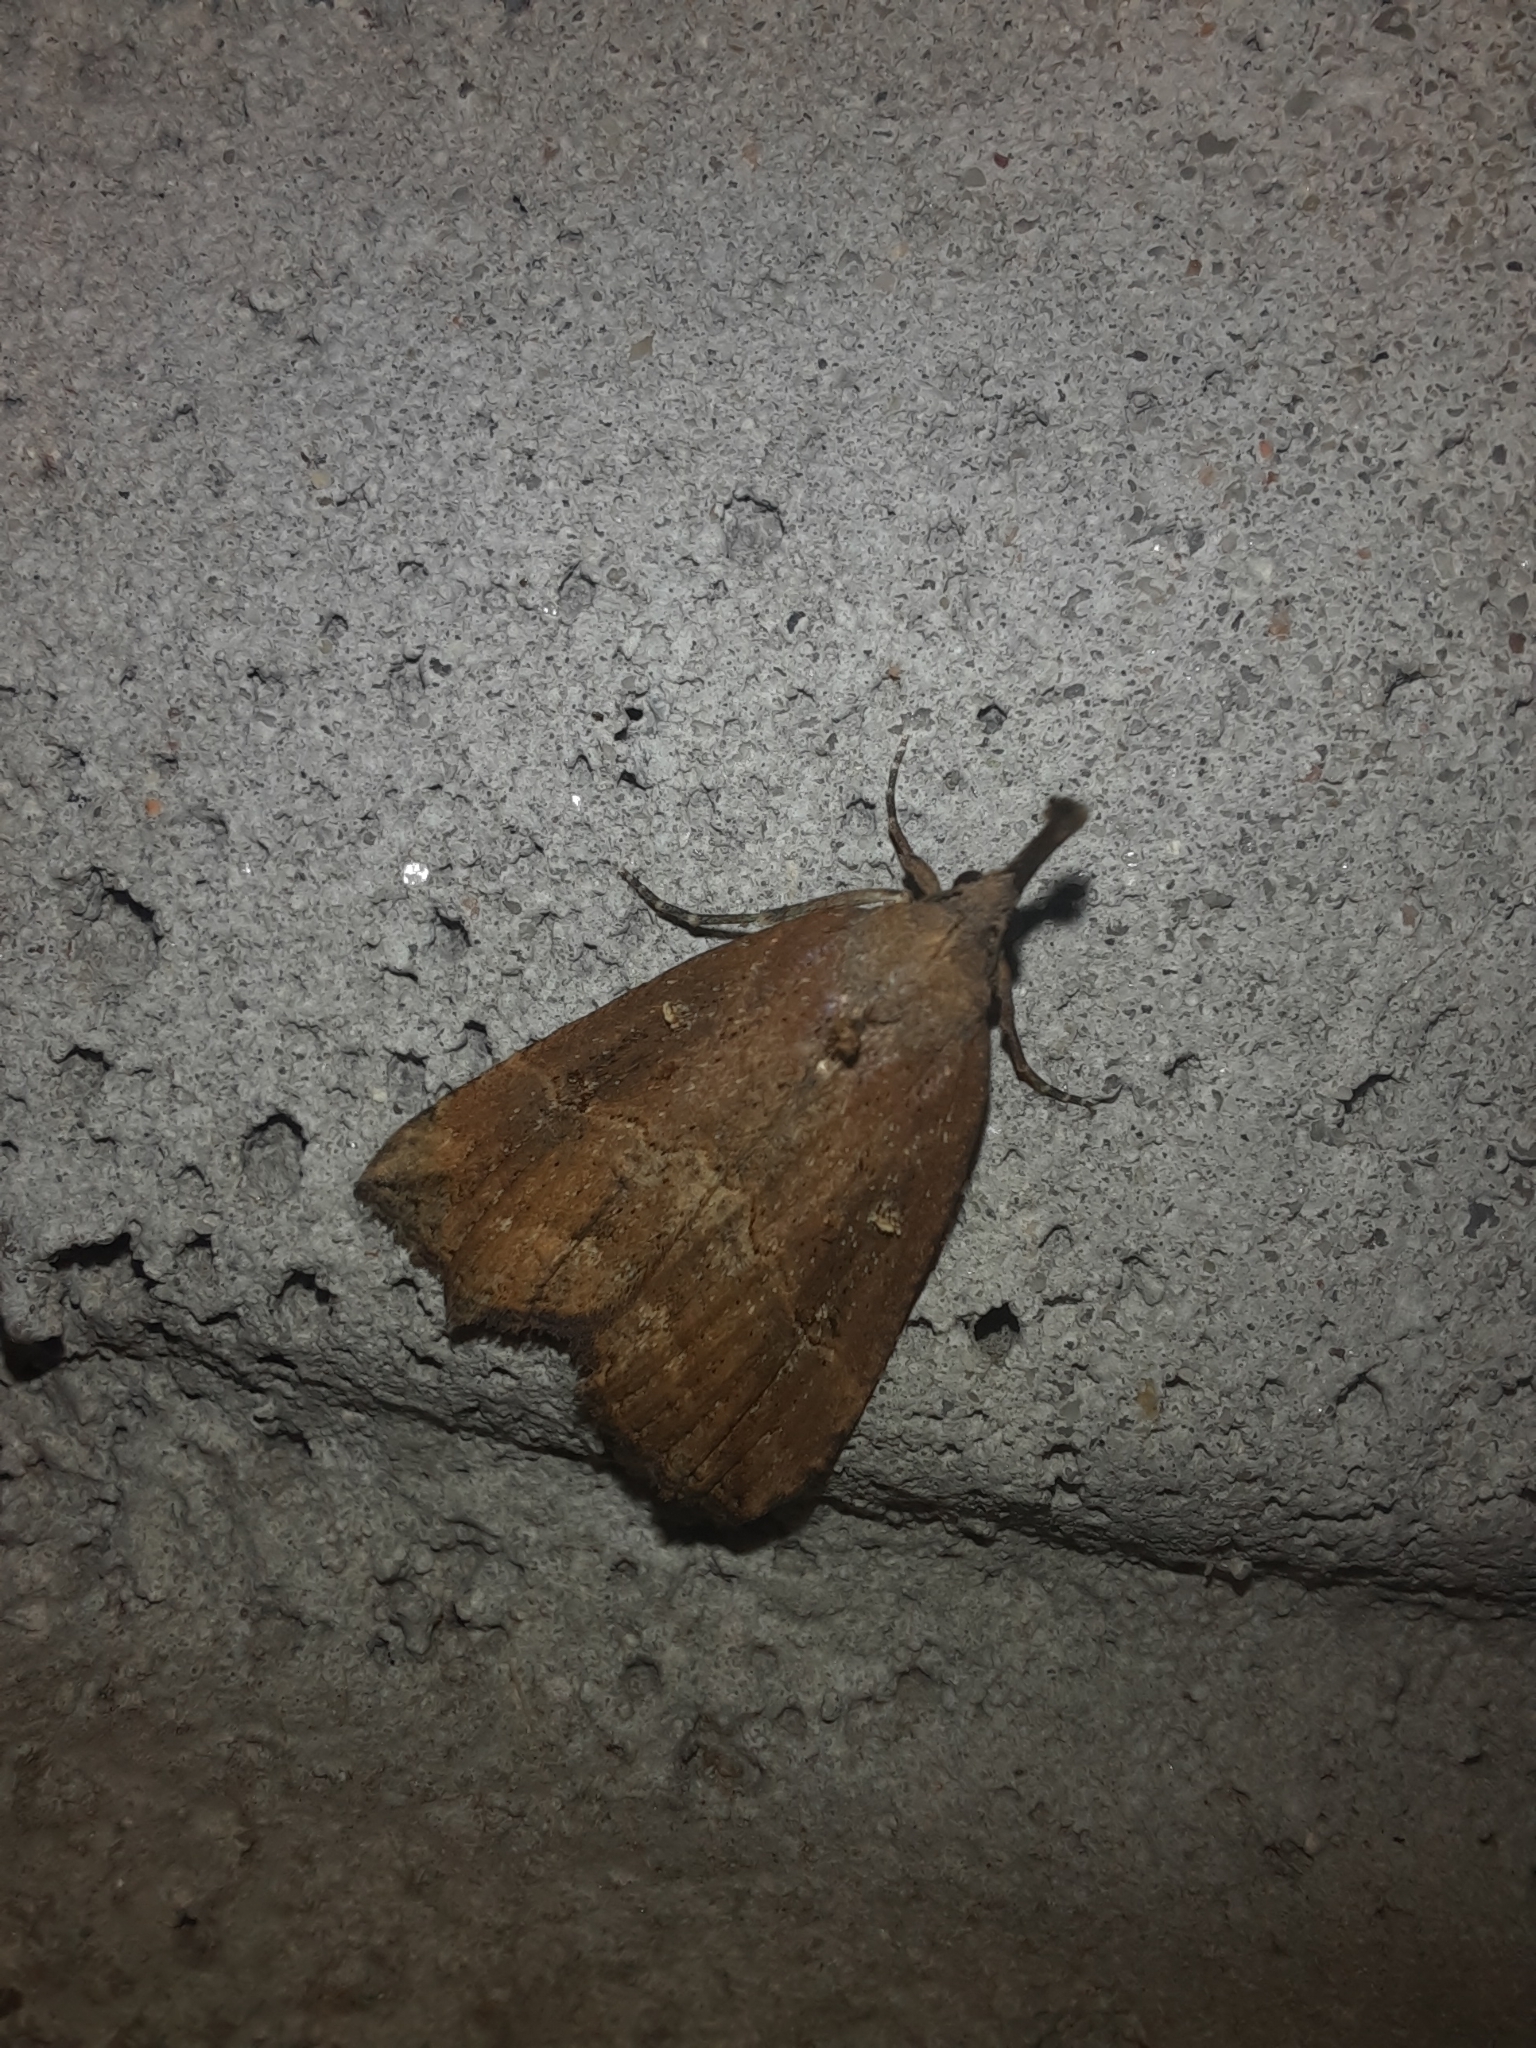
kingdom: Animalia
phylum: Arthropoda
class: Insecta
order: Lepidoptera
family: Erebidae
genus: Hypena
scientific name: Hypena rostralis
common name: Buttoned snout
